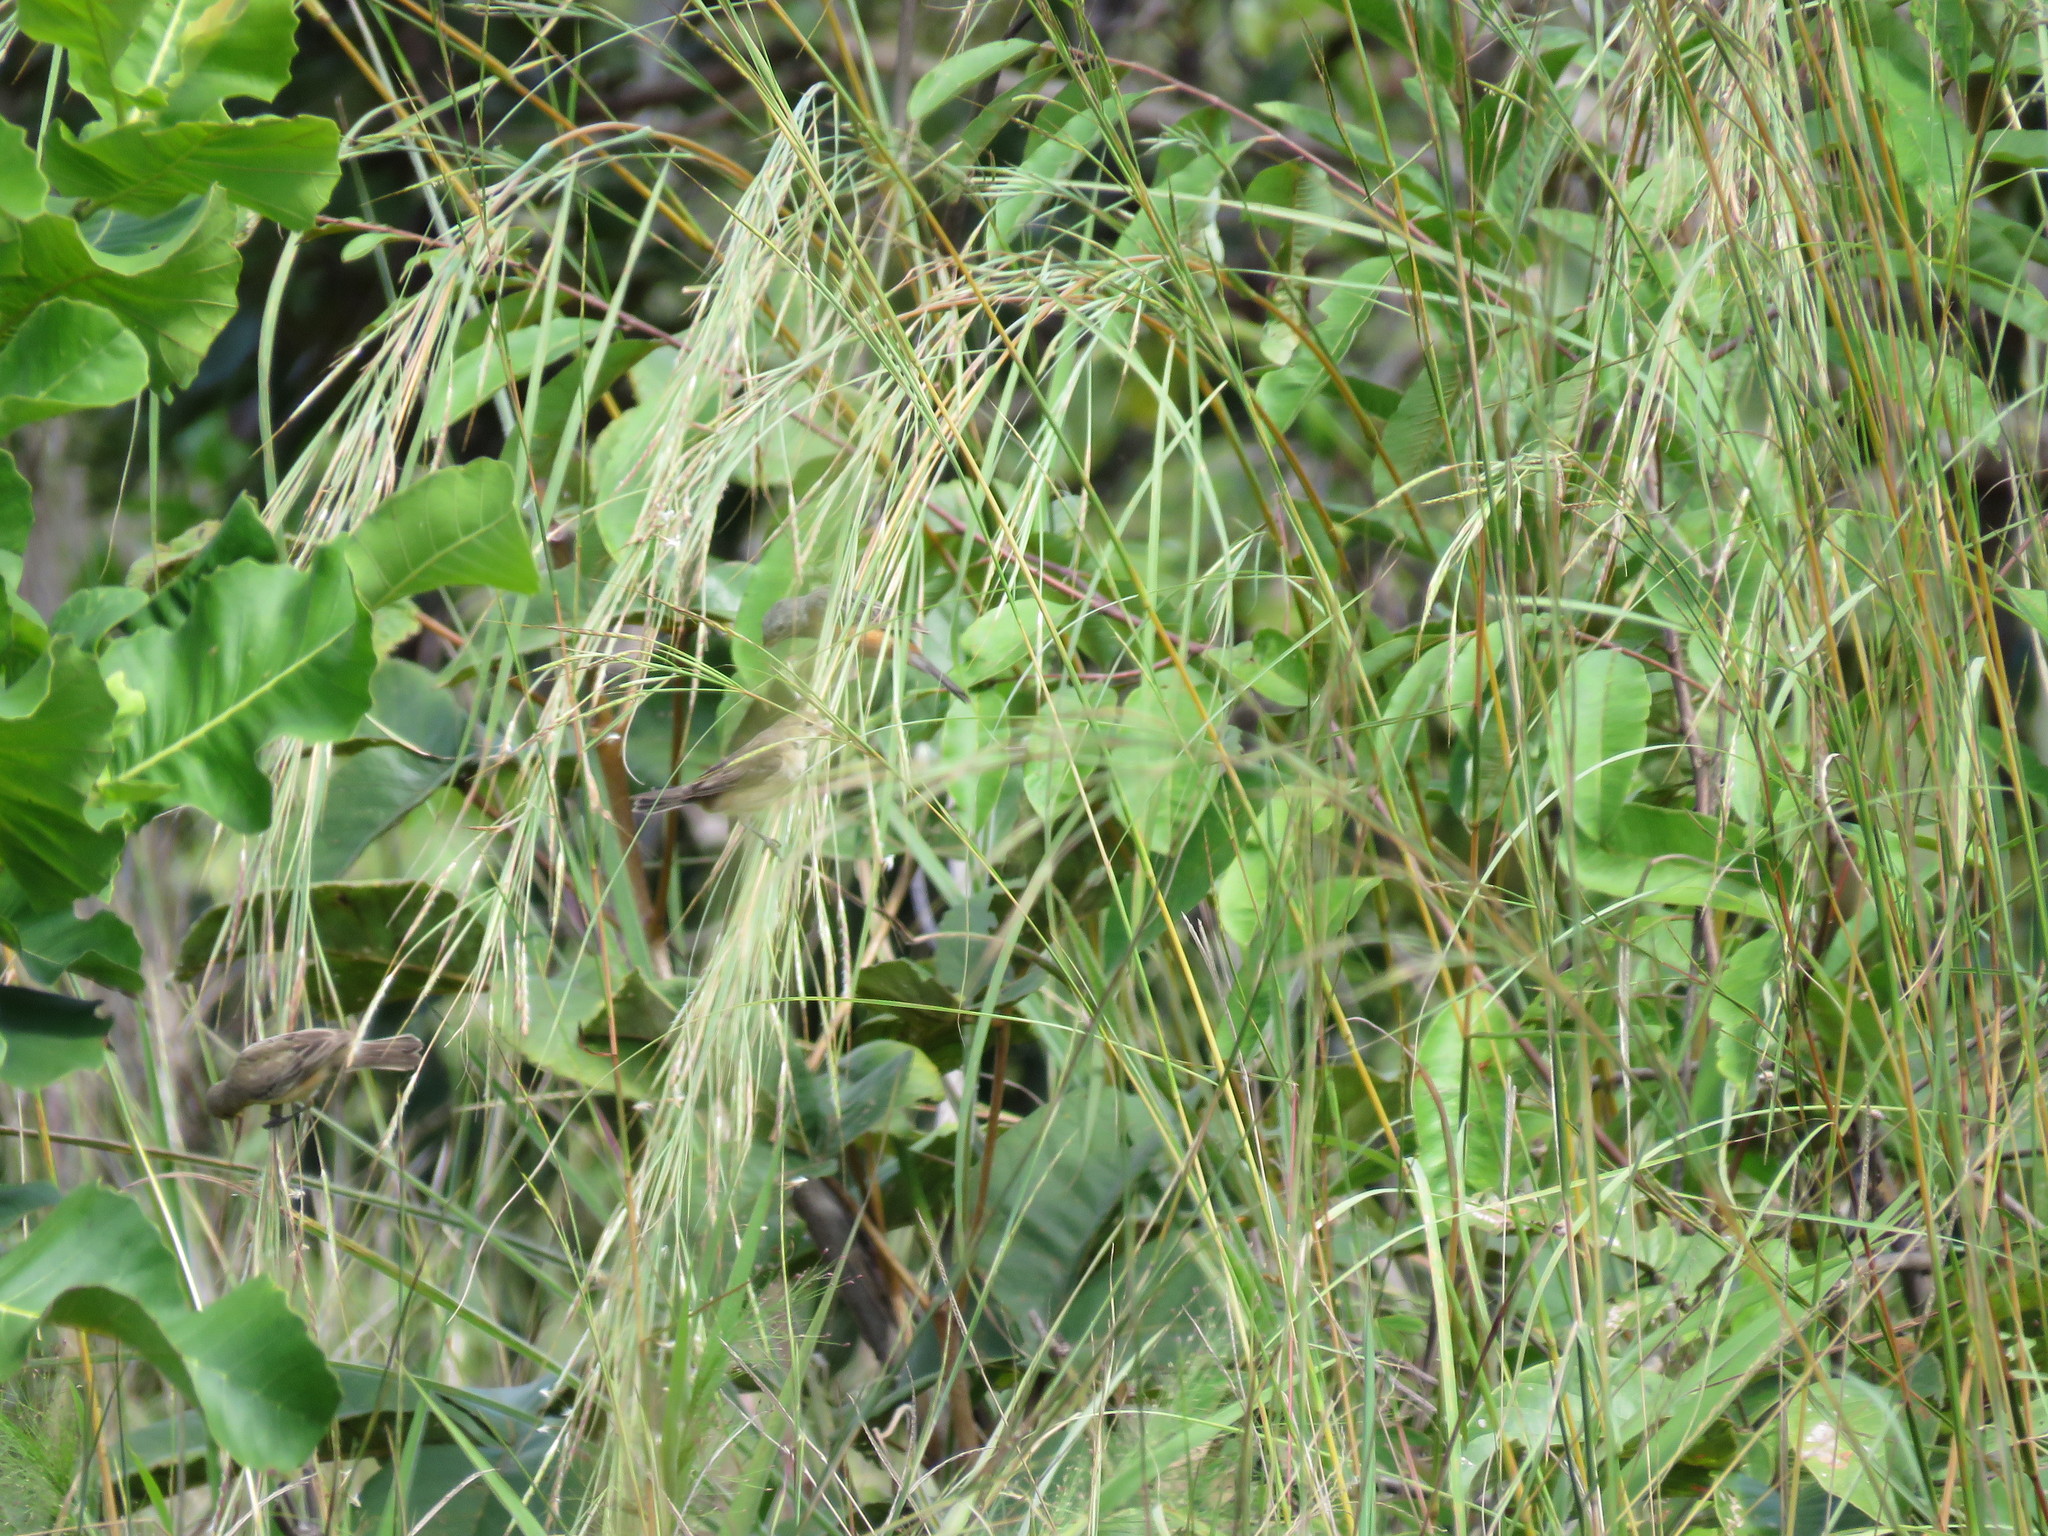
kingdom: Animalia
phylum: Chordata
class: Aves
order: Passeriformes
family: Thraupidae
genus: Sporophila
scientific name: Sporophila ruficollis
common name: Dark-throated seedeater
